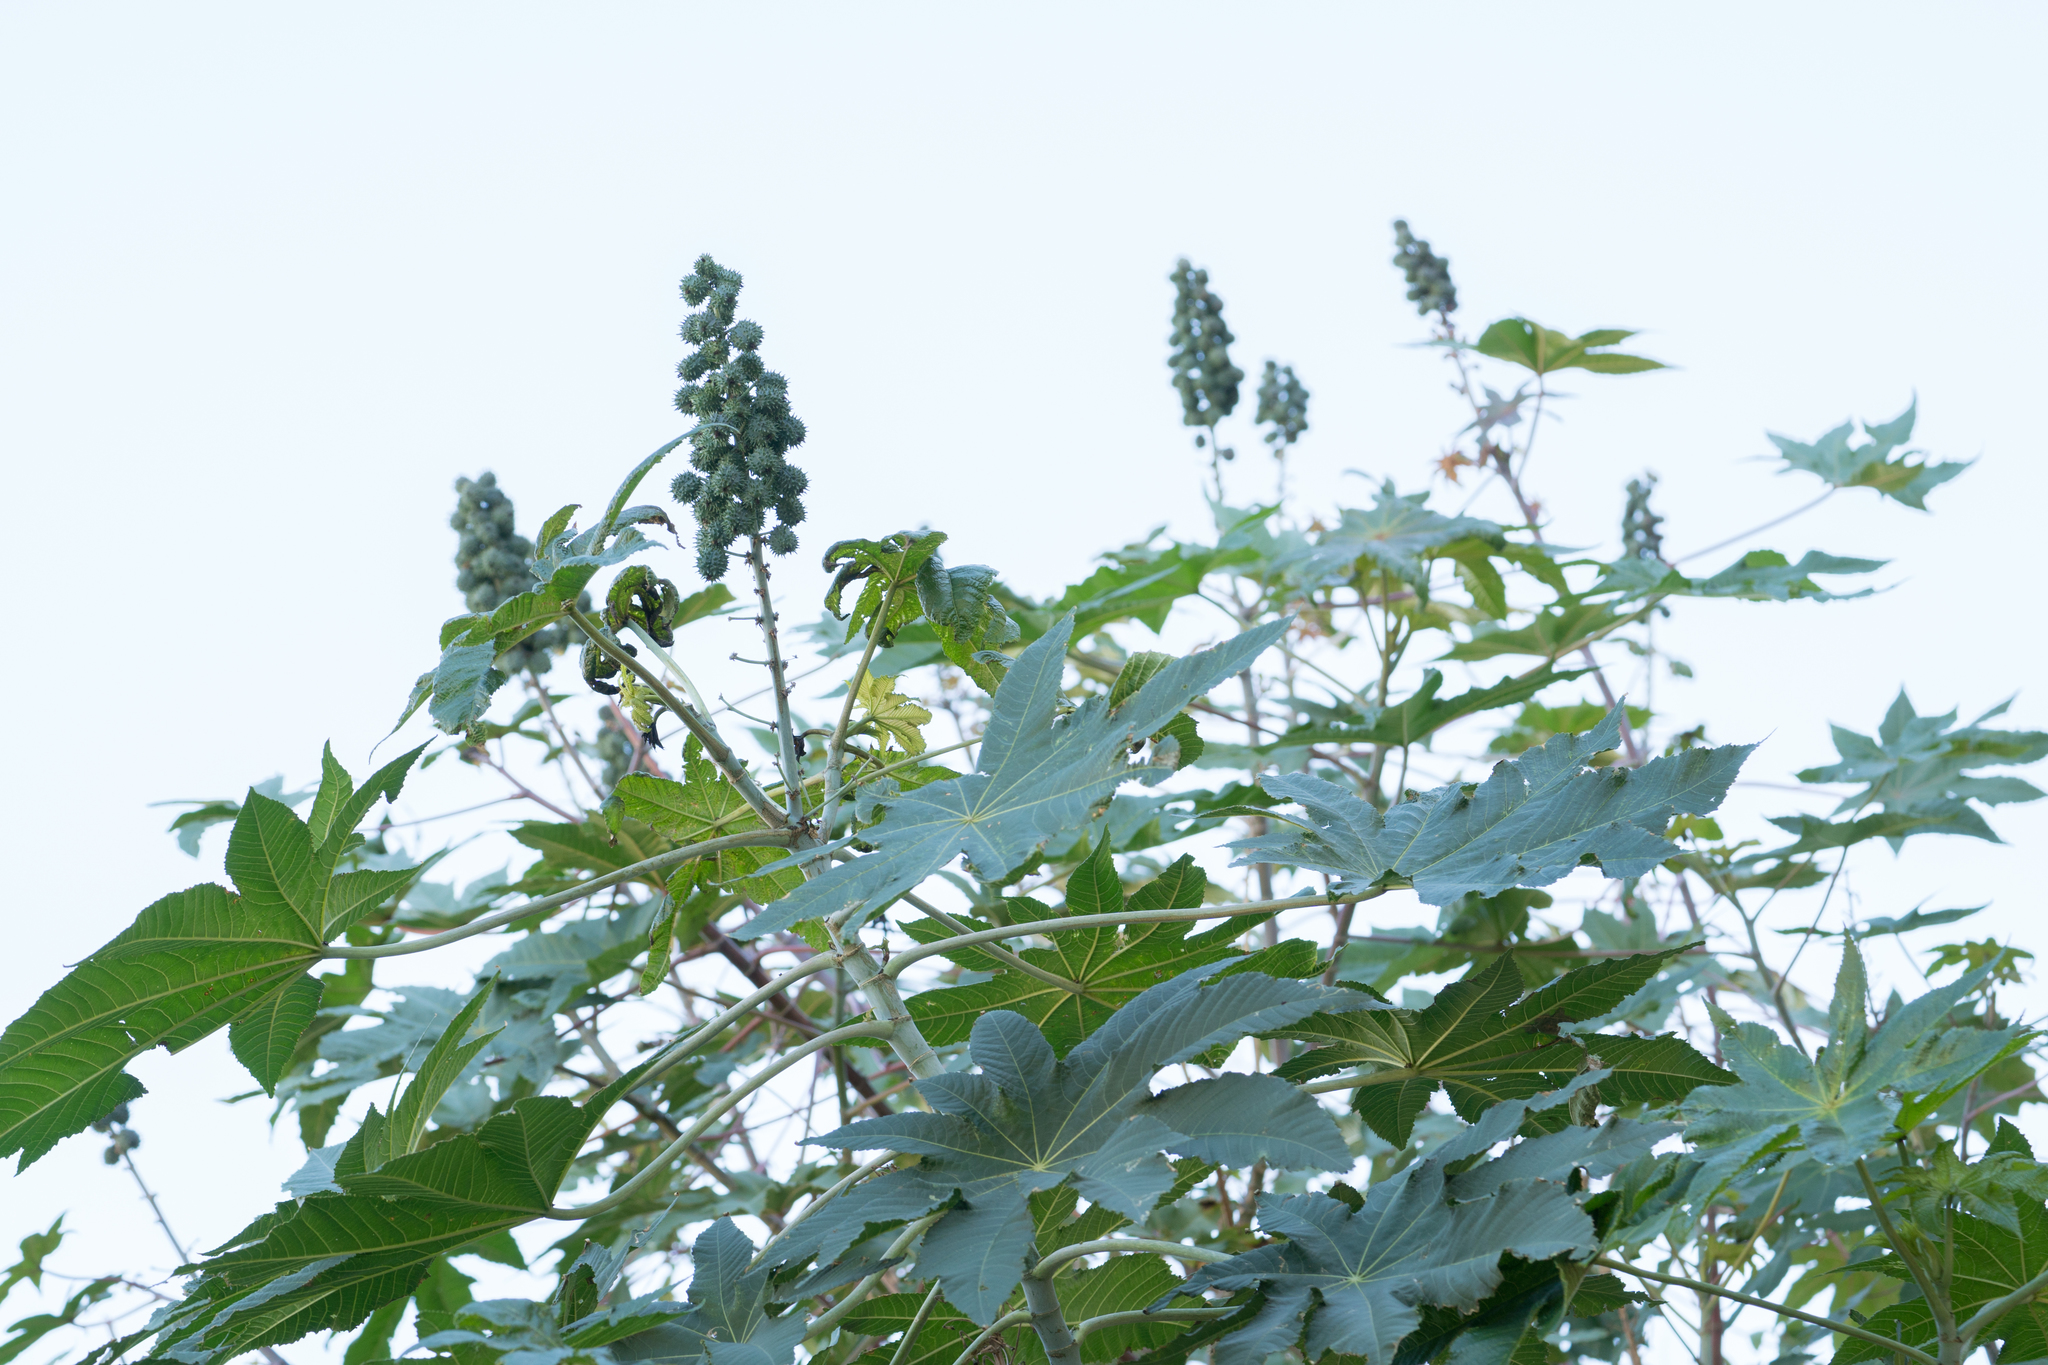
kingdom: Plantae
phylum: Tracheophyta
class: Magnoliopsida
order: Malpighiales
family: Euphorbiaceae
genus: Ricinus
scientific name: Ricinus communis
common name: Castor-oil-plant
